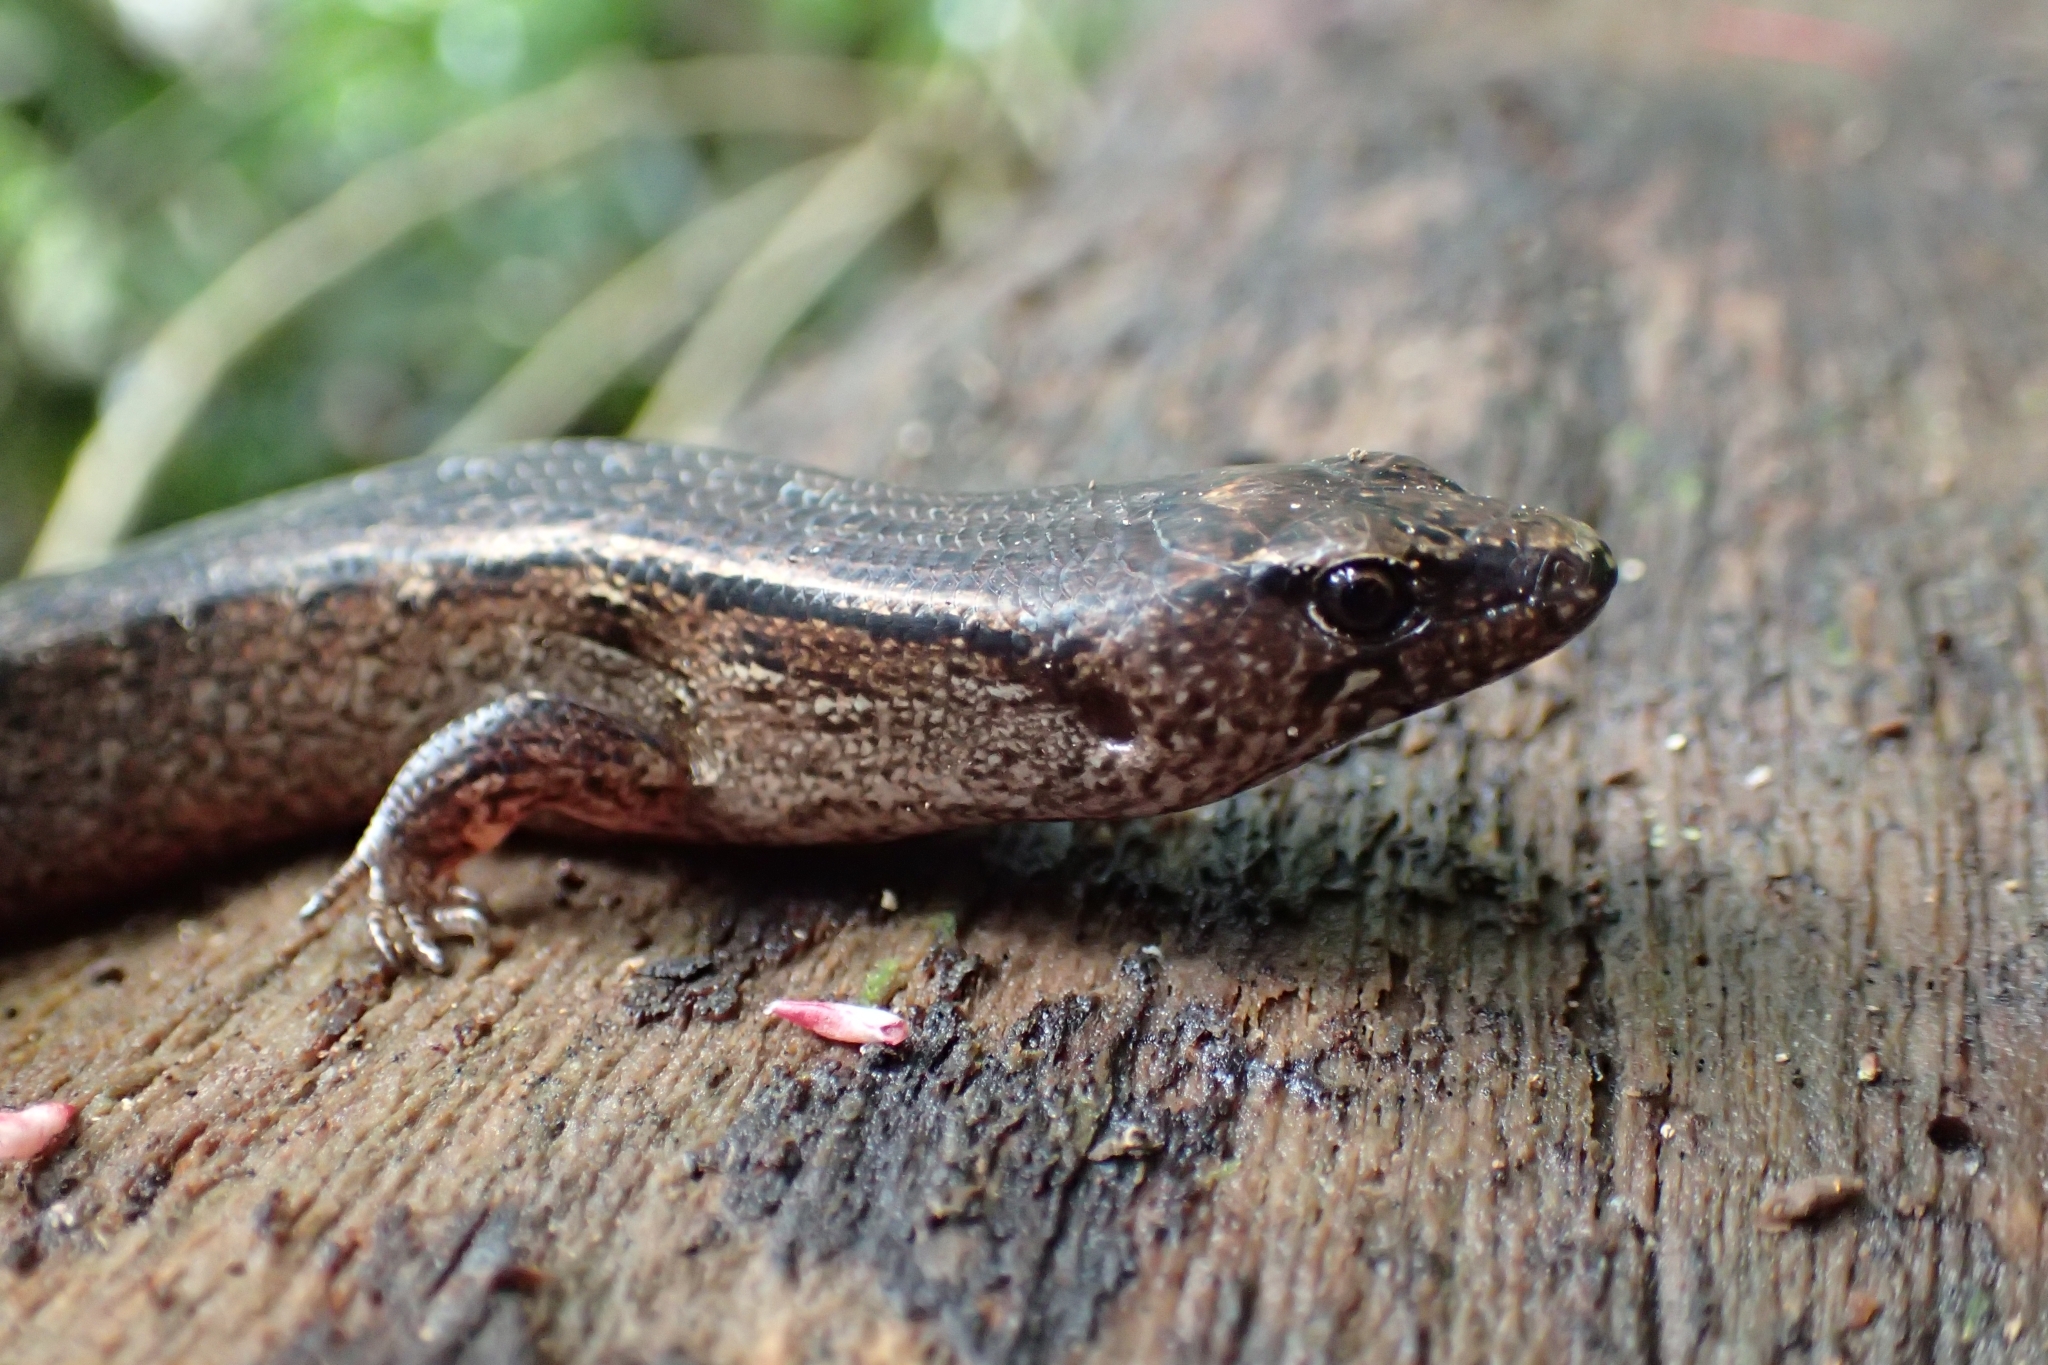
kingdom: Animalia
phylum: Chordata
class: Squamata
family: Scincidae
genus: Oligosoma
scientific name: Oligosoma ornatum
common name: Gray's ornate skink
